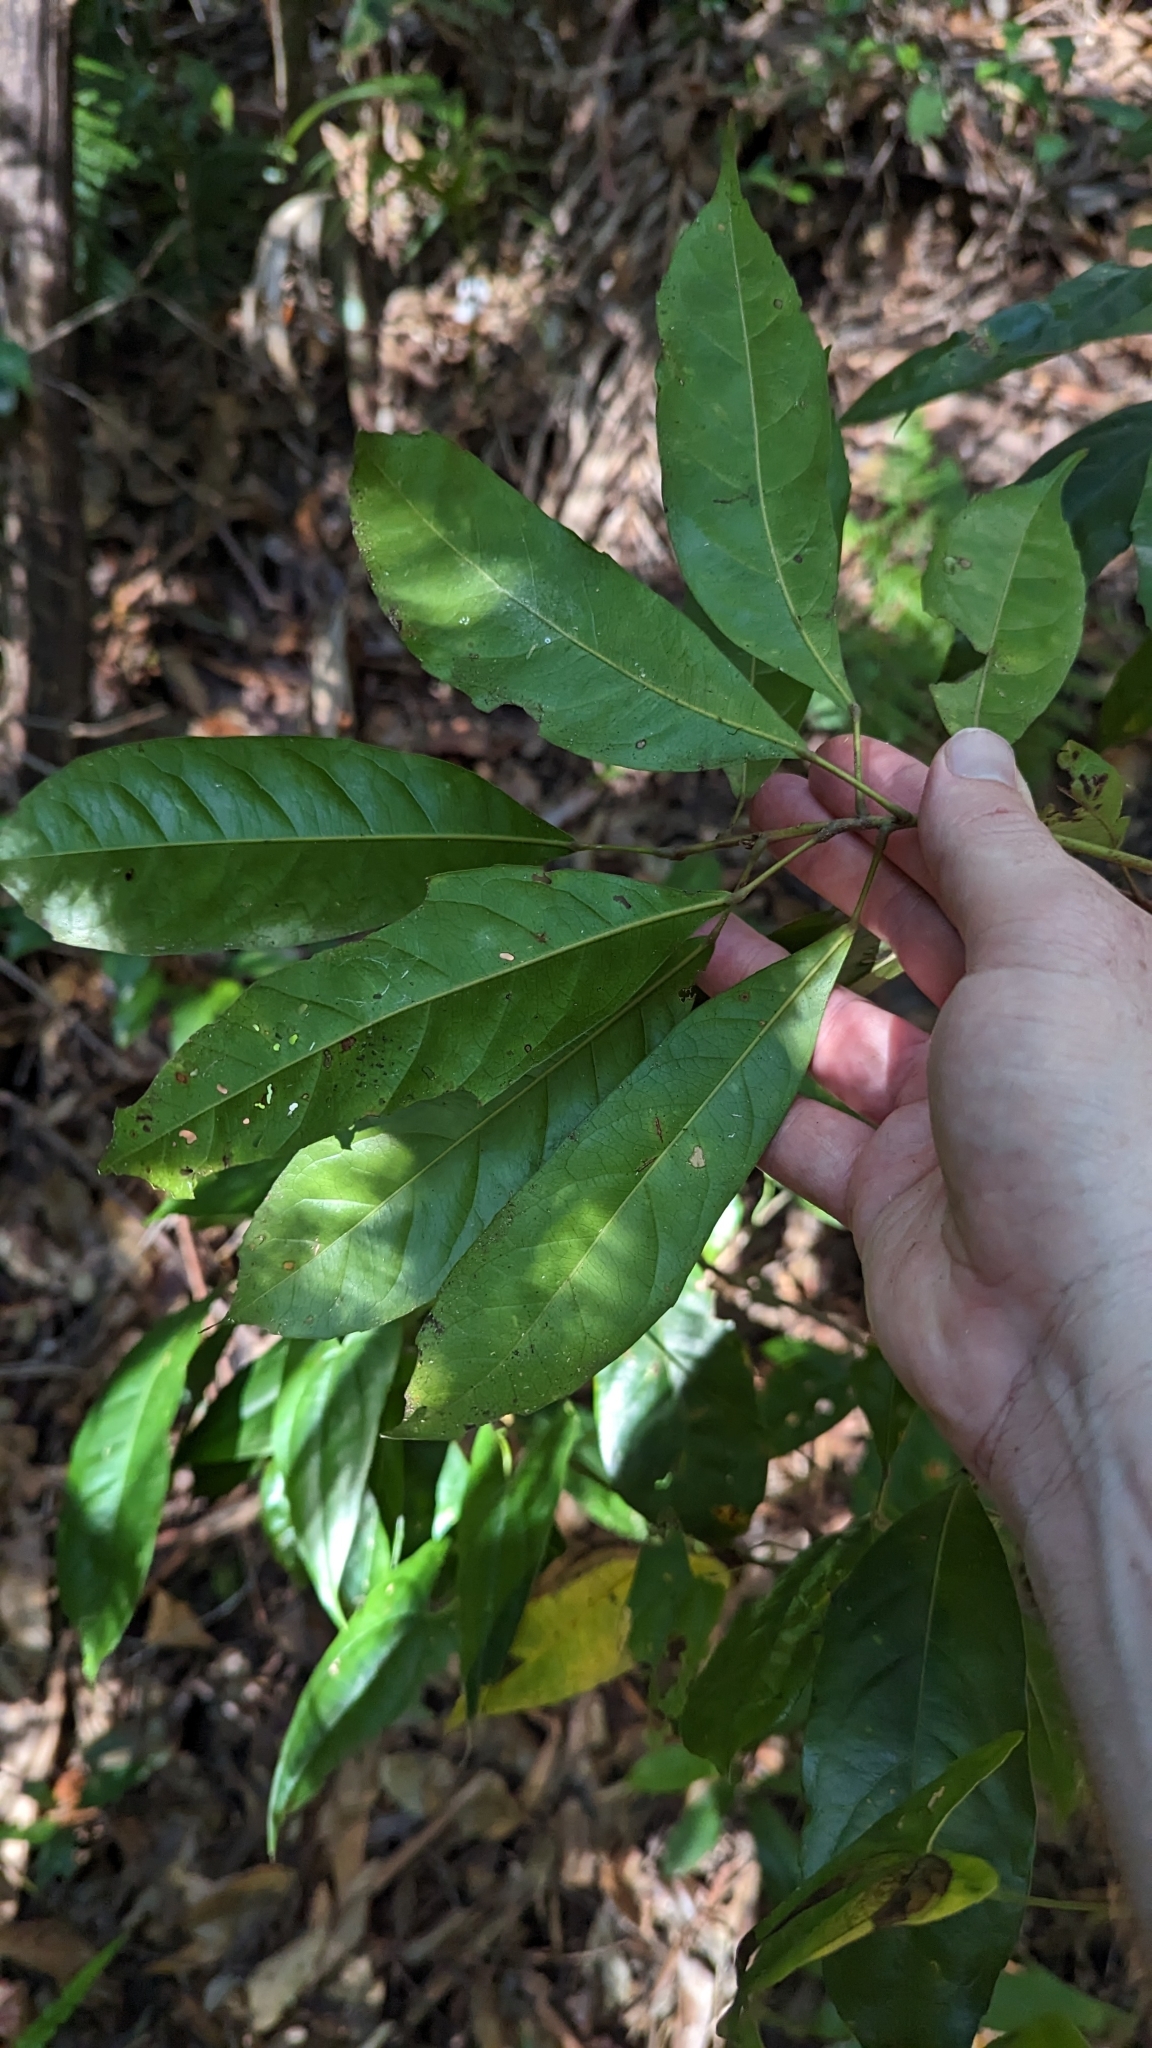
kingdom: Plantae
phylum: Tracheophyta
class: Magnoliopsida
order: Oxalidales
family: Elaeocarpaceae
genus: Elaeocarpus
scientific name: Elaeocarpus eumundi
